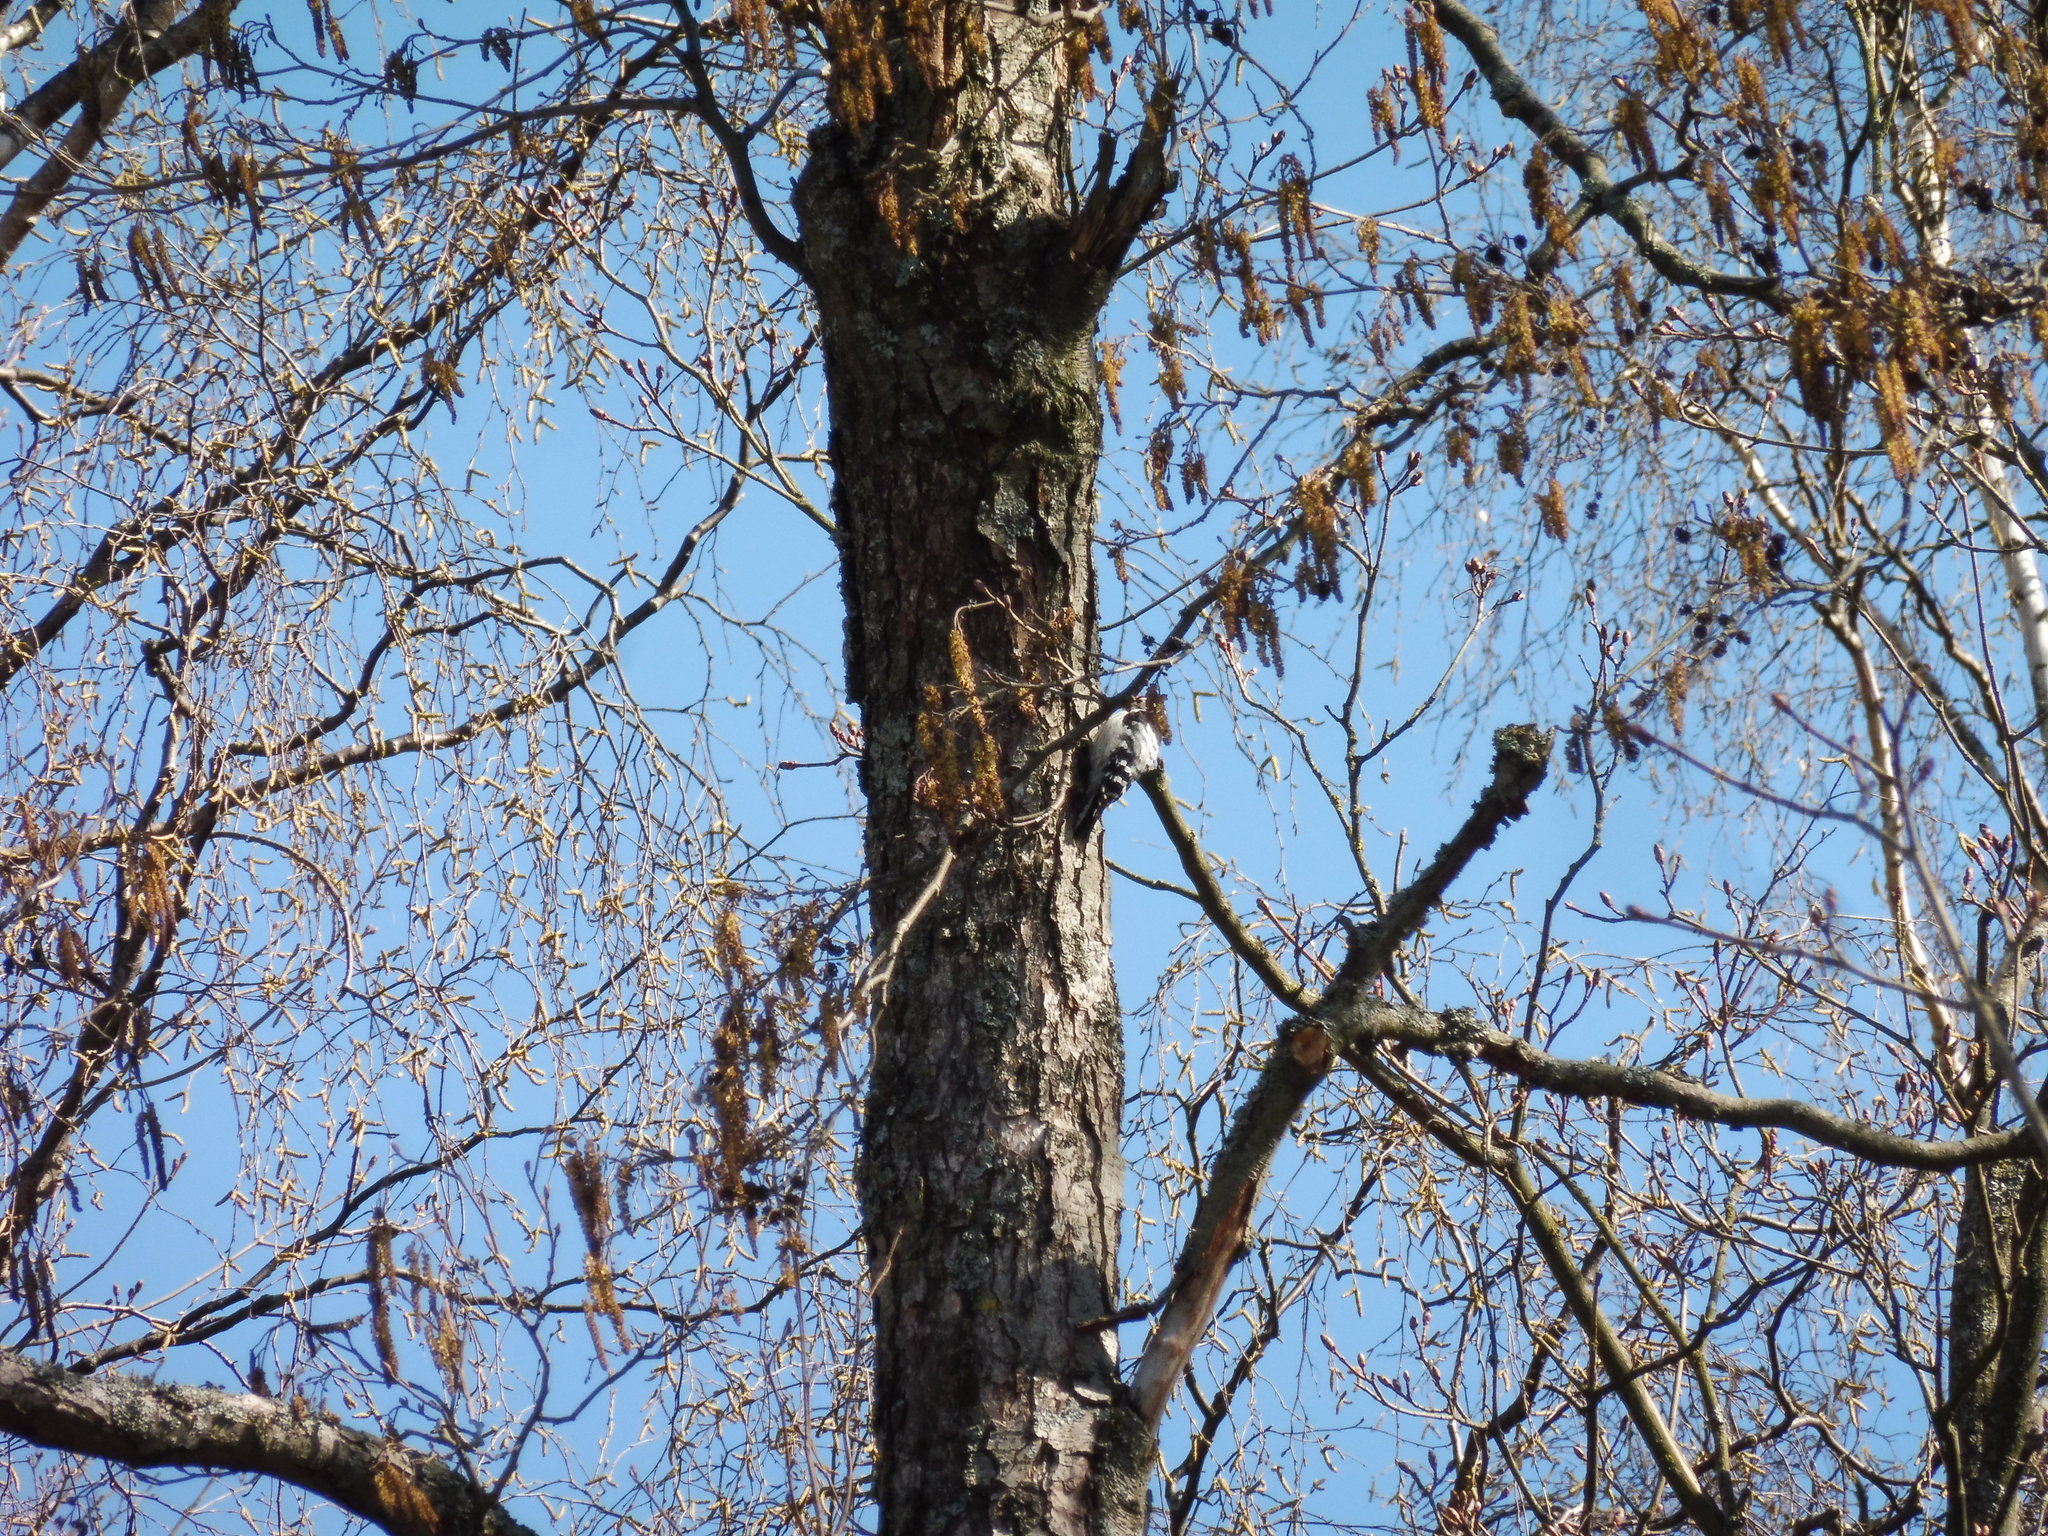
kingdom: Animalia
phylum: Chordata
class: Aves
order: Piciformes
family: Picidae
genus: Dryobates
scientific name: Dryobates minor
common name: Lesser spotted woodpecker
